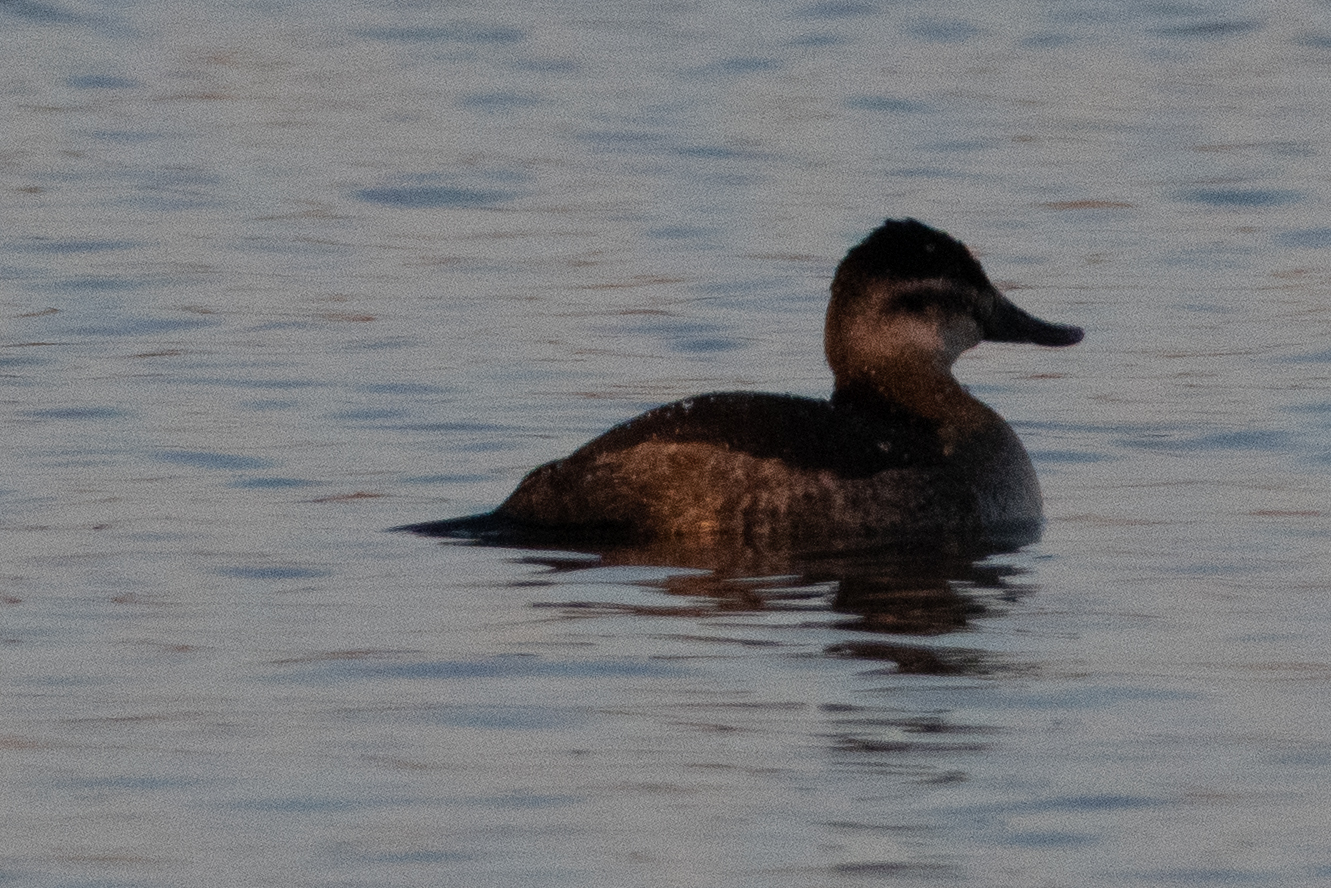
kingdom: Animalia
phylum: Chordata
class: Aves
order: Anseriformes
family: Anatidae
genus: Oxyura
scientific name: Oxyura jamaicensis
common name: Ruddy duck
